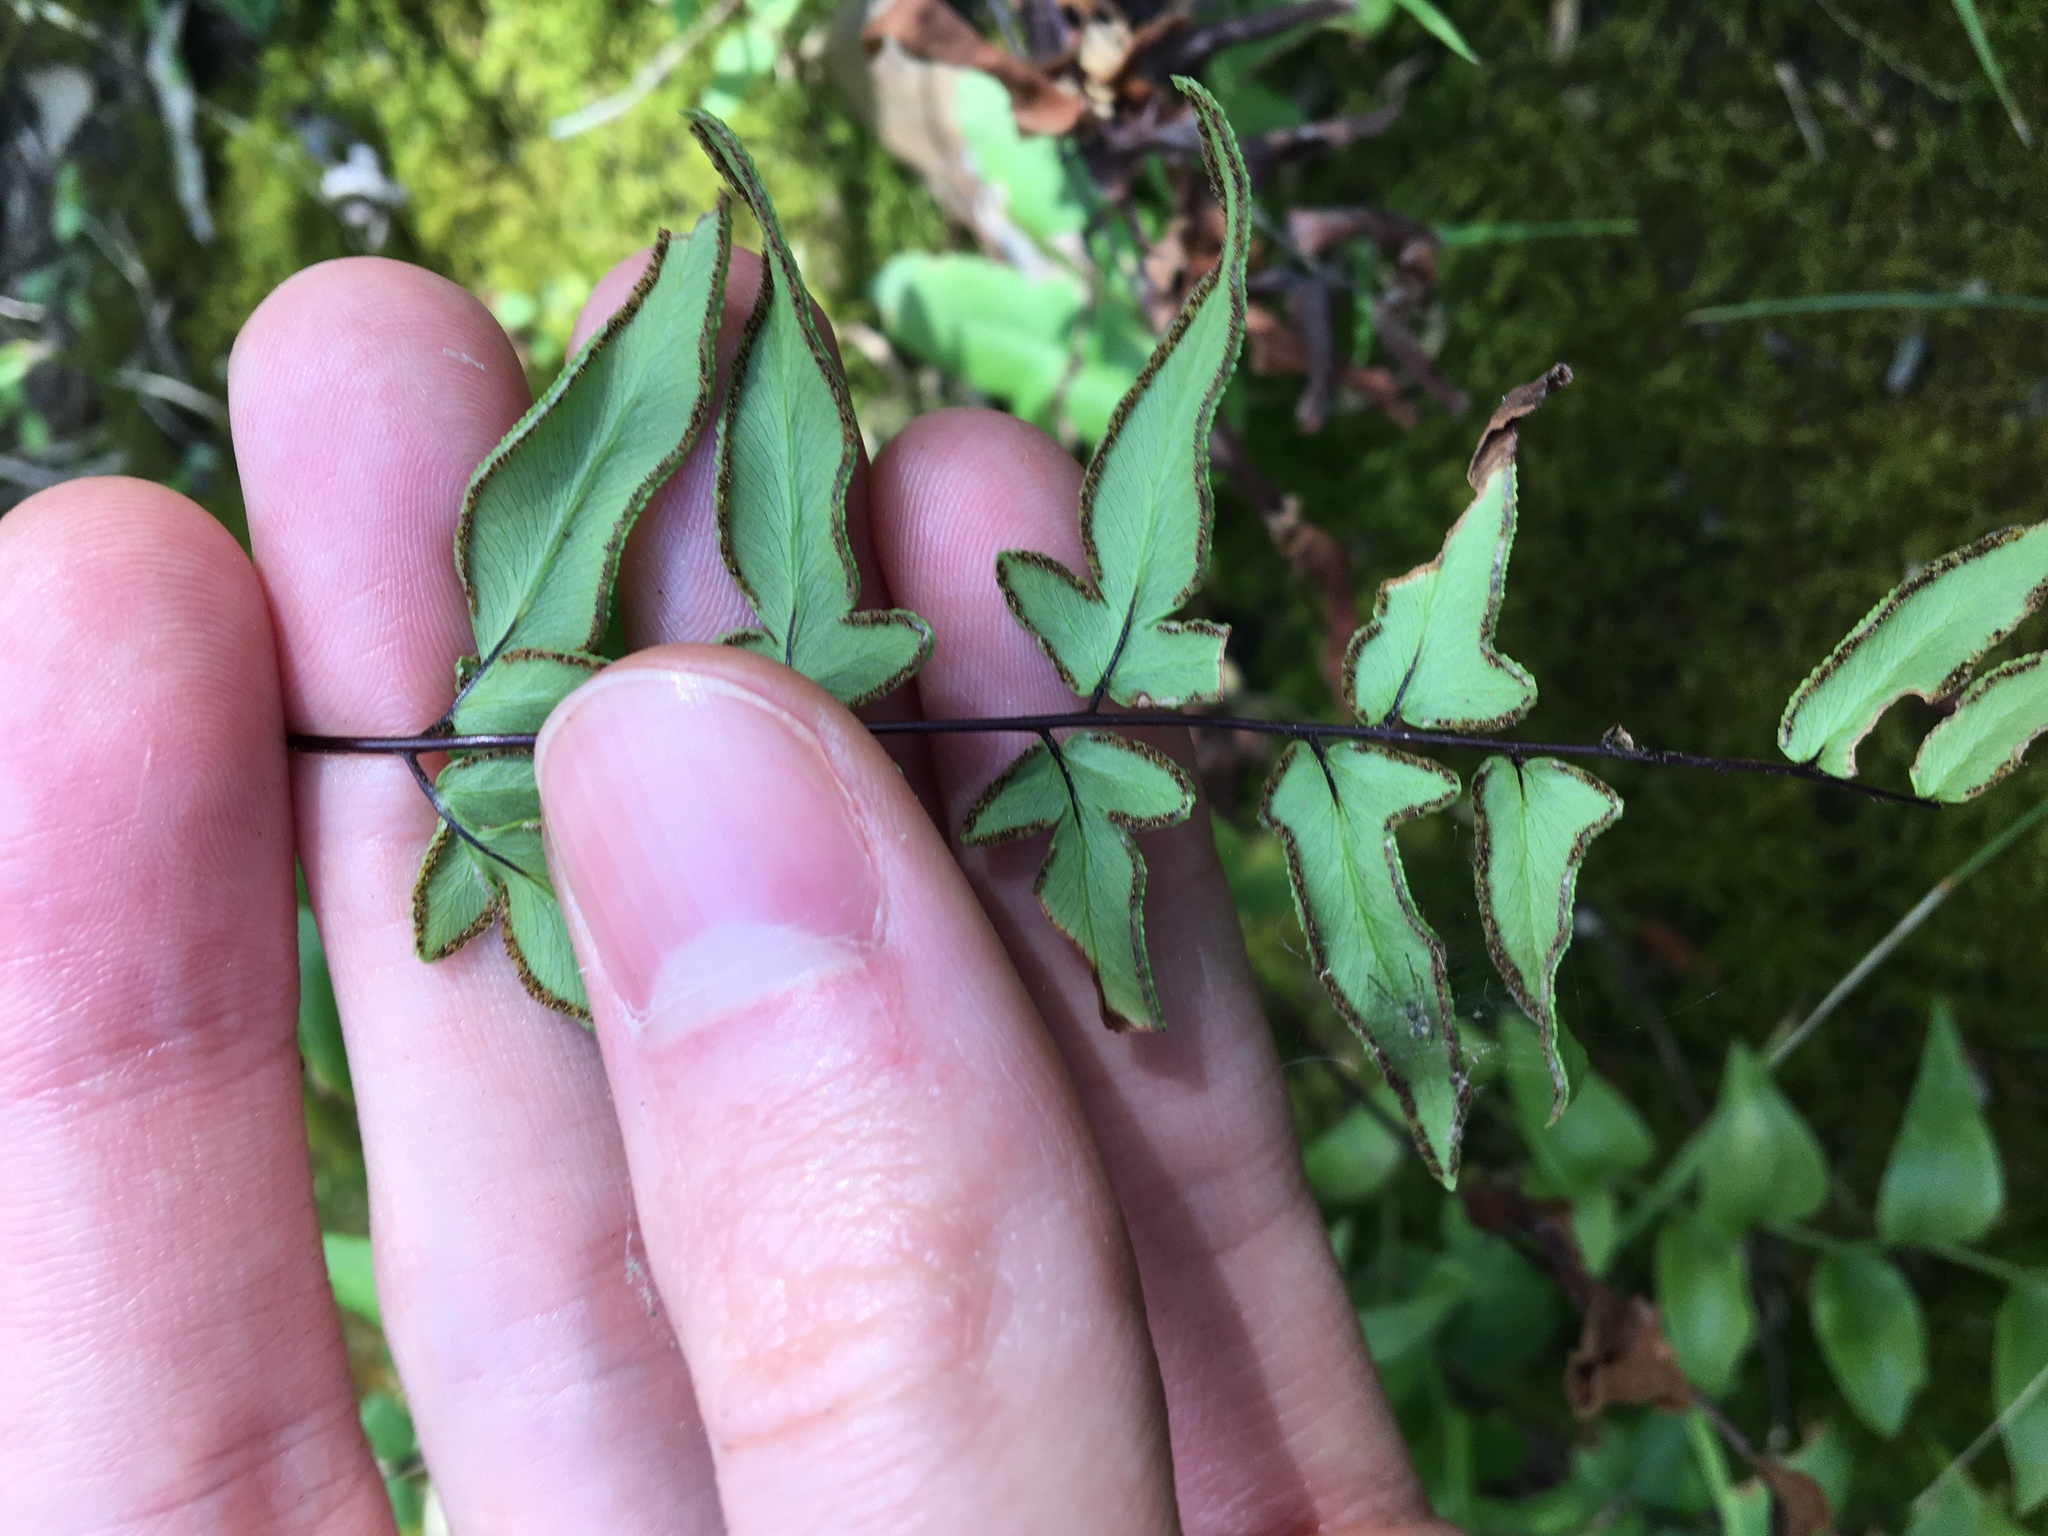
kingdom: Plantae
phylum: Tracheophyta
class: Polypodiopsida
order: Polypodiales
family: Pteridaceae
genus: Cheilanthes
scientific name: Cheilanthes viridis
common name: Green cliffbrake
